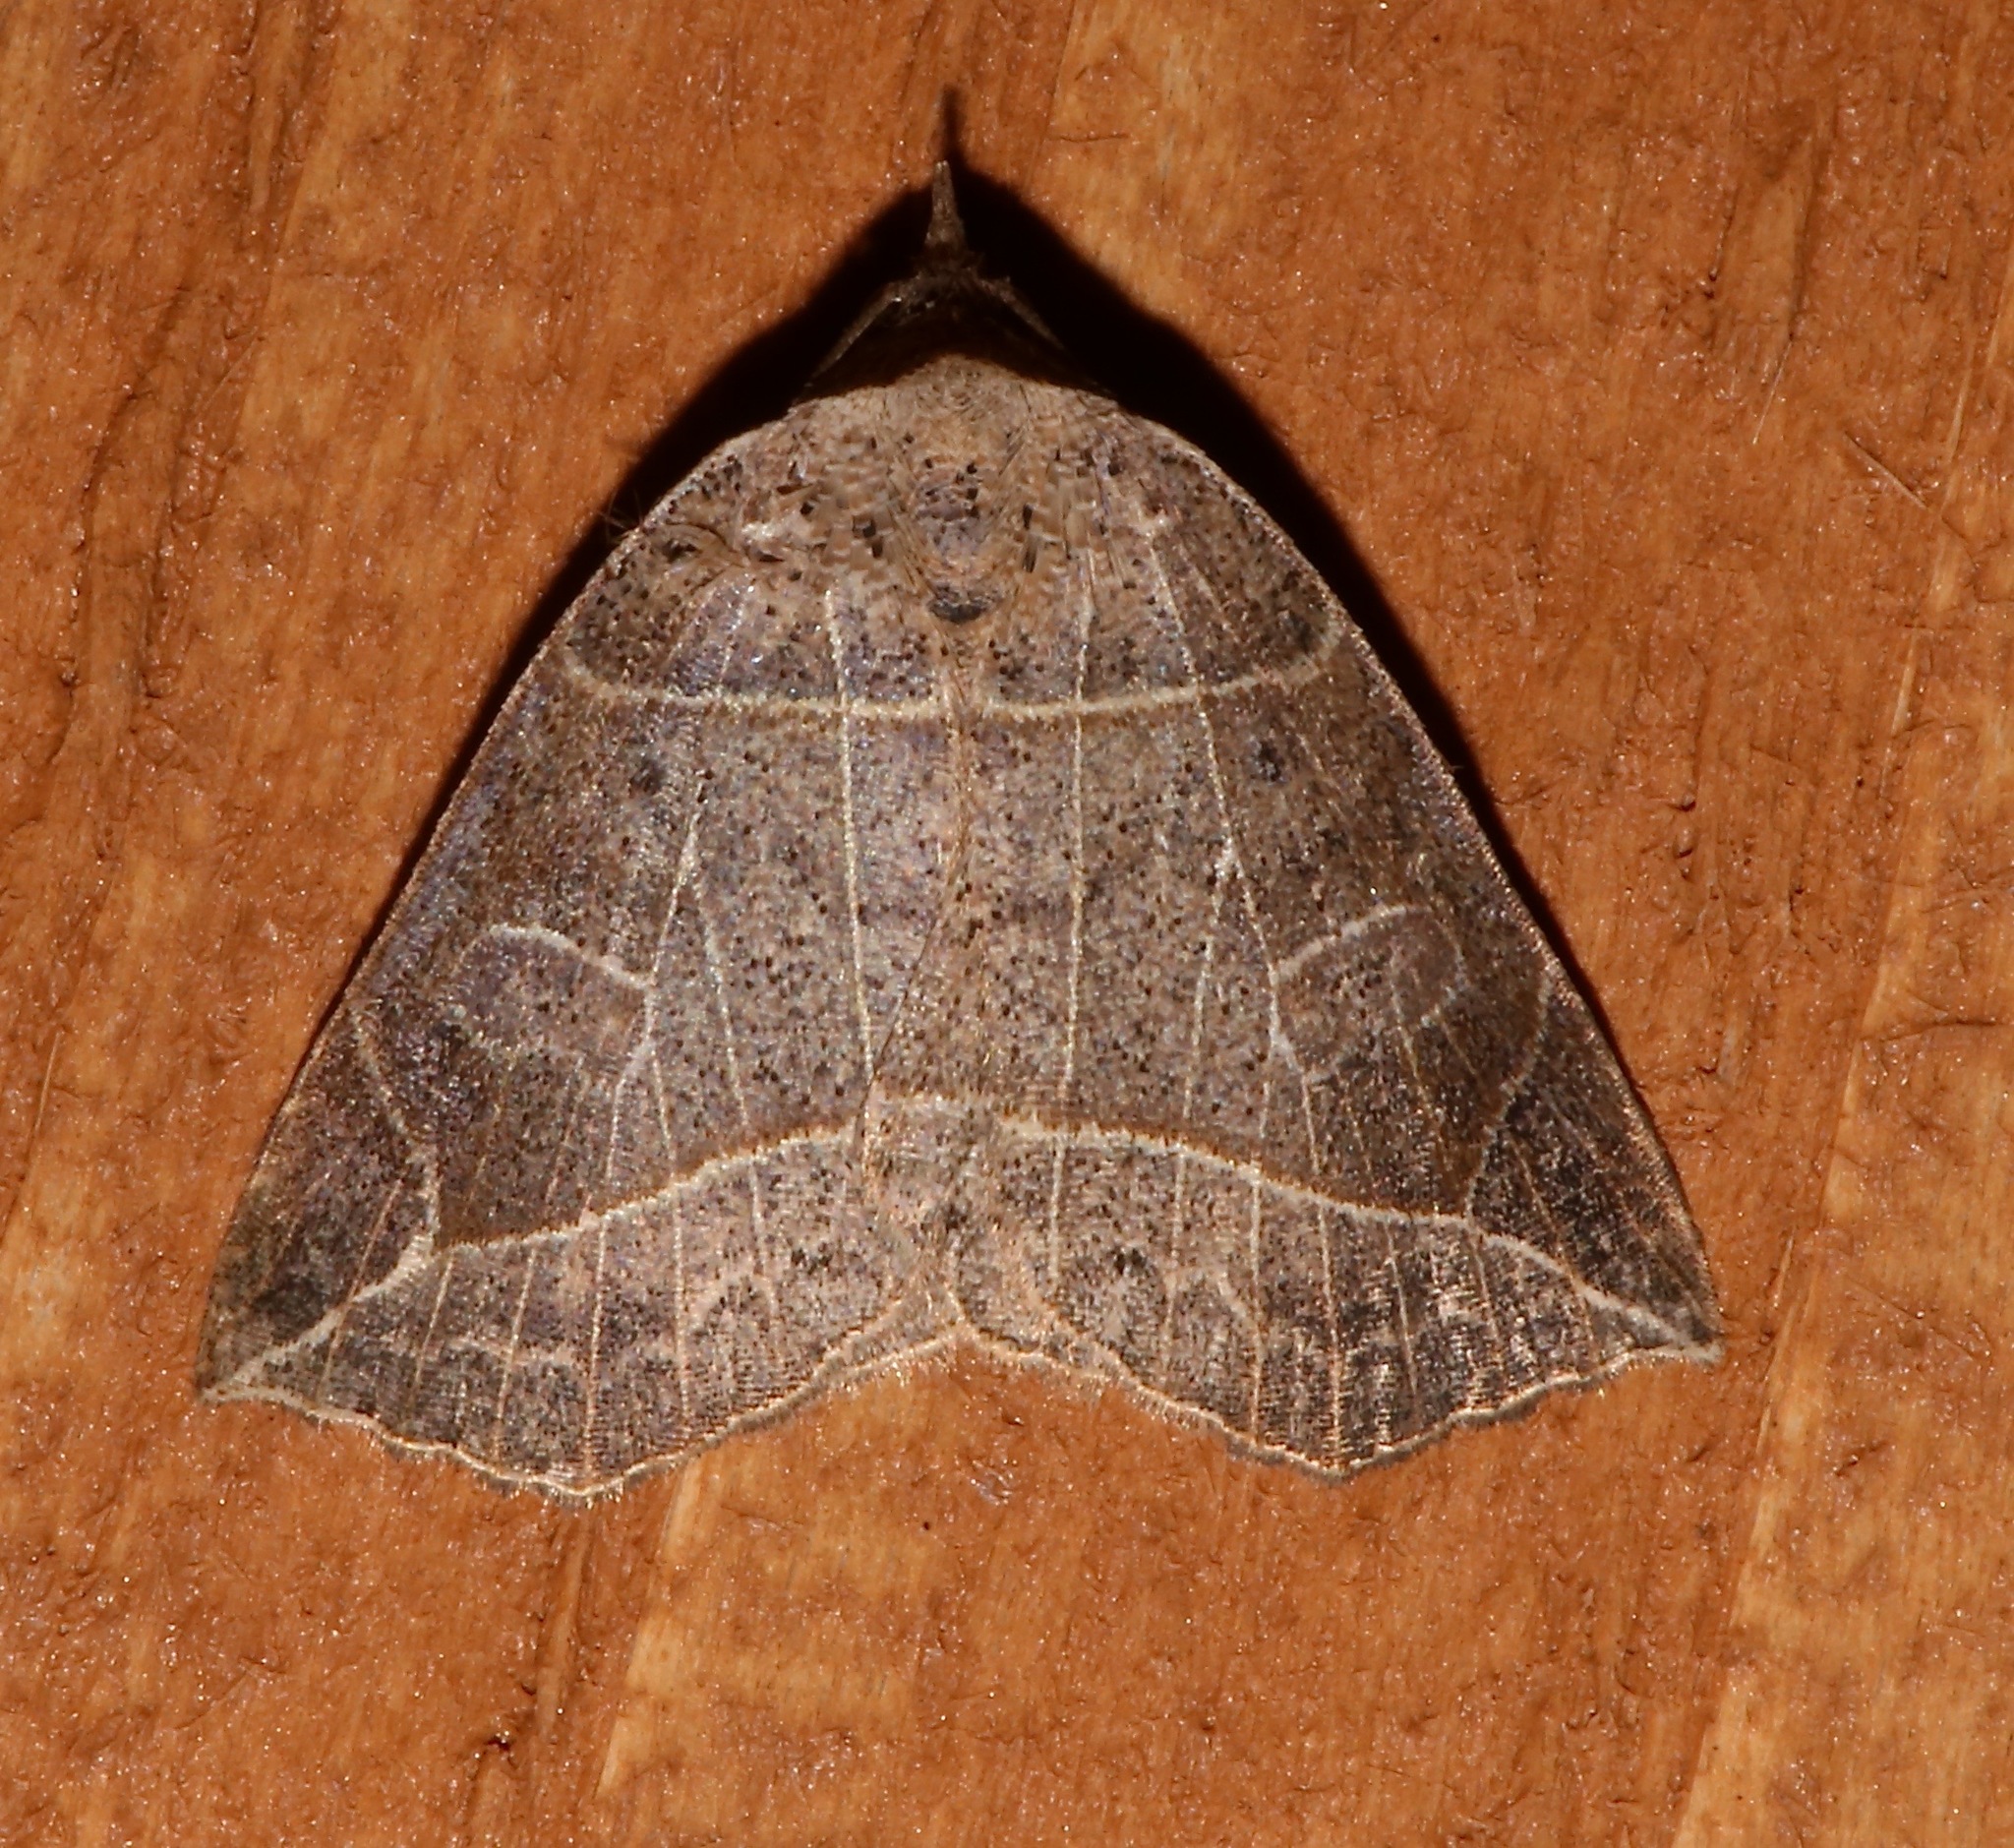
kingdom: Animalia
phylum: Arthropoda
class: Insecta
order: Lepidoptera
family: Erebidae
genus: Isogona
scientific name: Isogona tenuis
